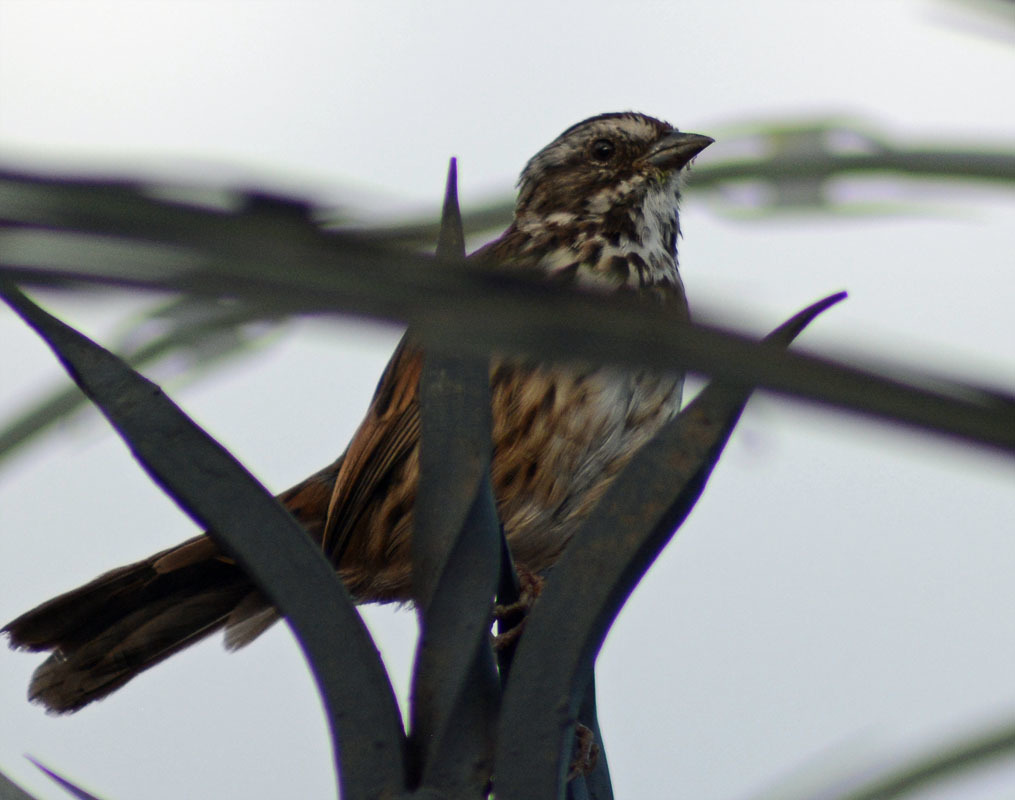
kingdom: Animalia
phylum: Chordata
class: Aves
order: Passeriformes
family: Passerellidae
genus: Melospiza
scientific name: Melospiza melodia
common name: Song sparrow
